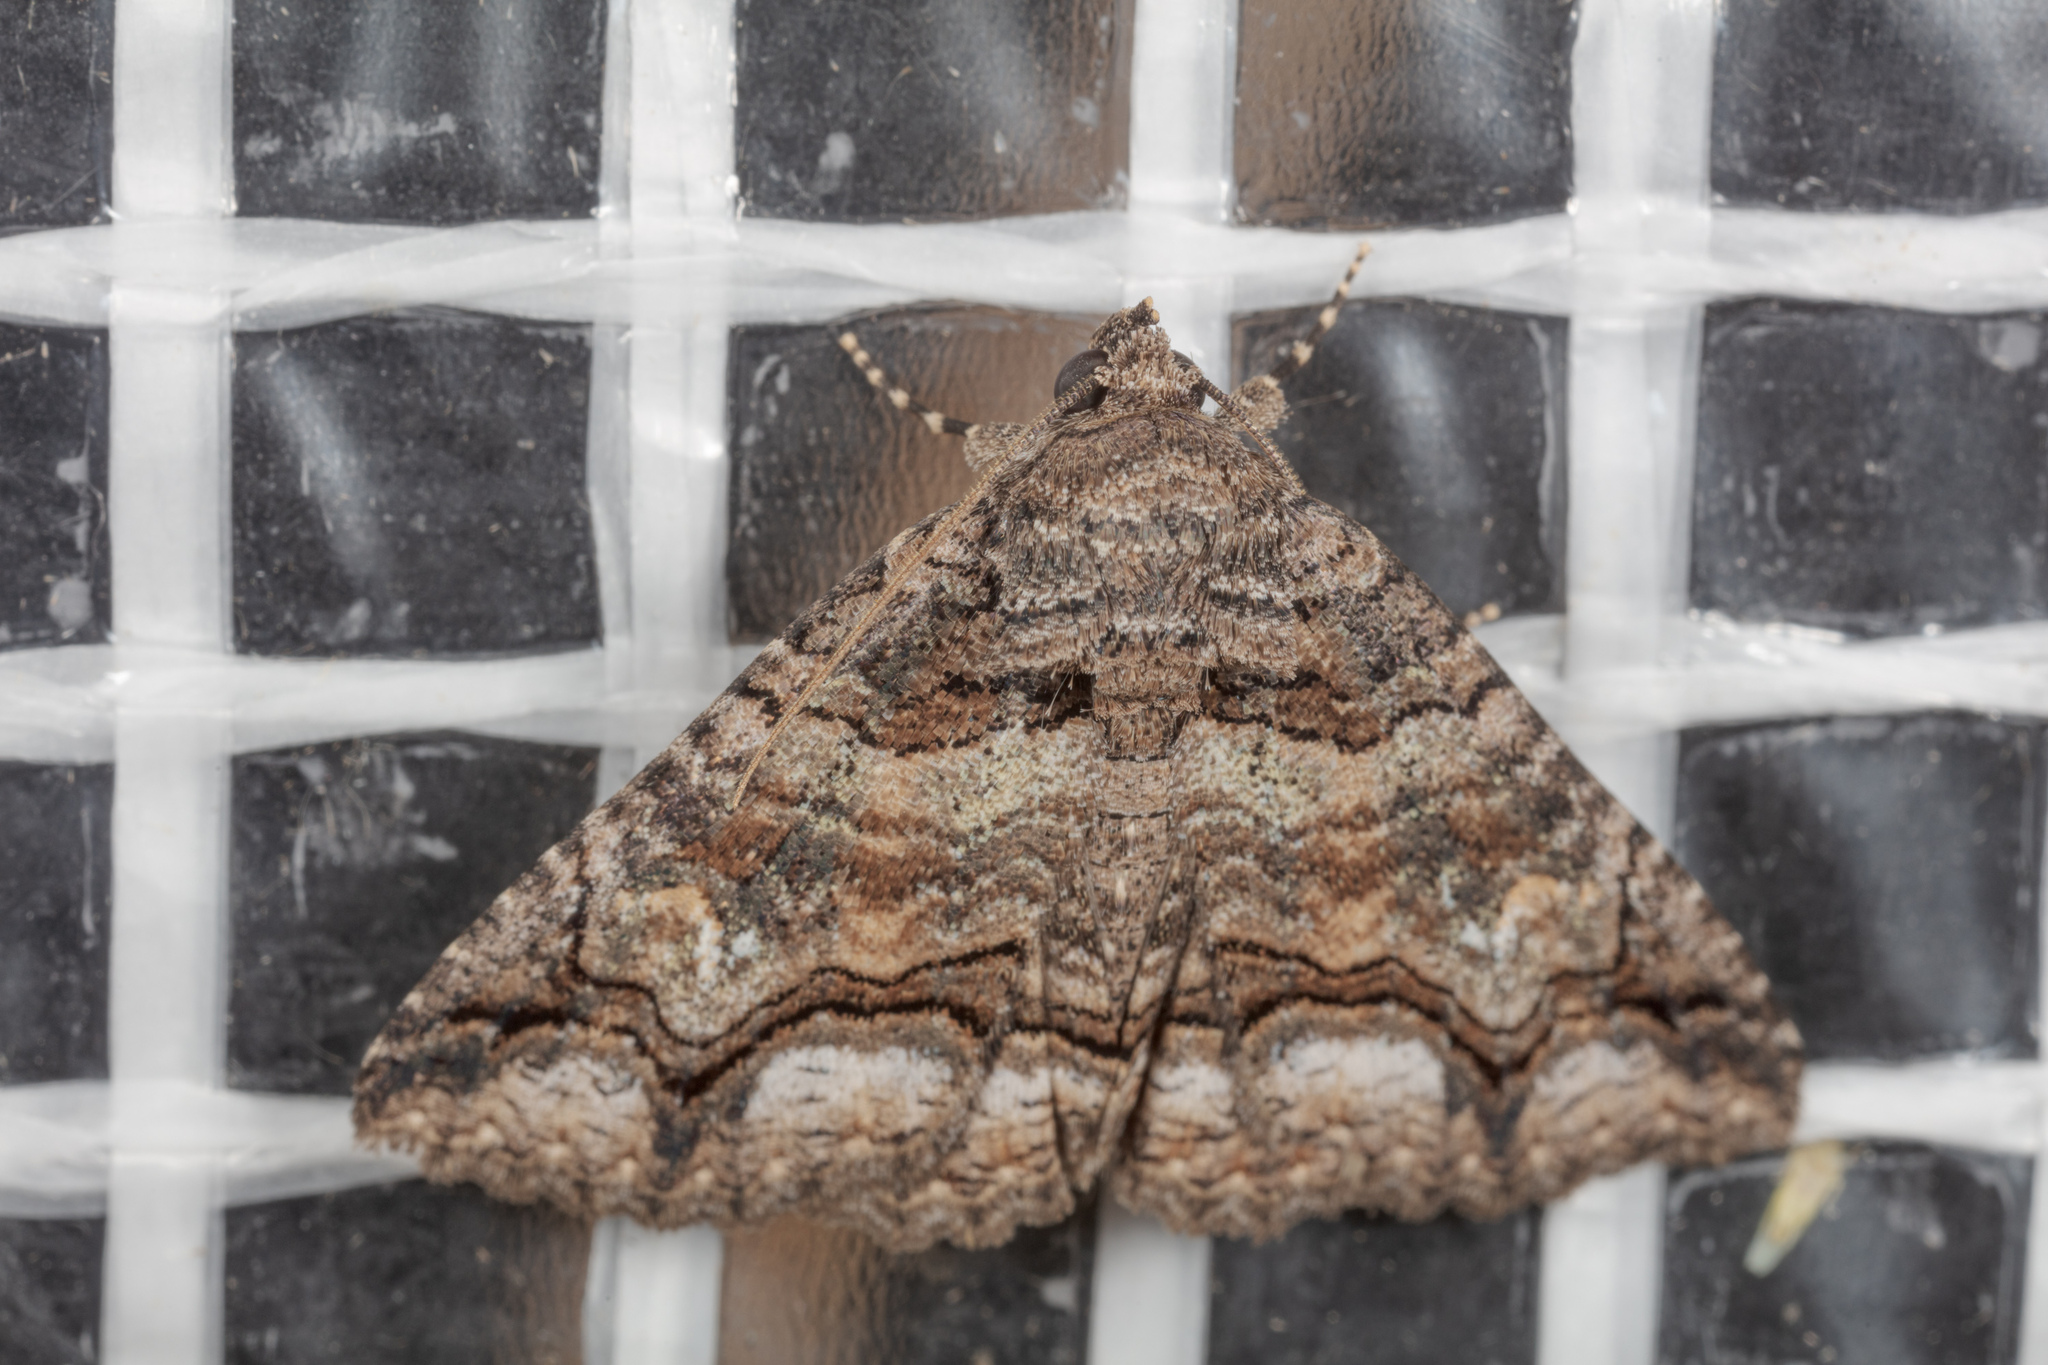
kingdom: Animalia
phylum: Arthropoda
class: Insecta
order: Lepidoptera
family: Erebidae
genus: Zale
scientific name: Zale edusina
